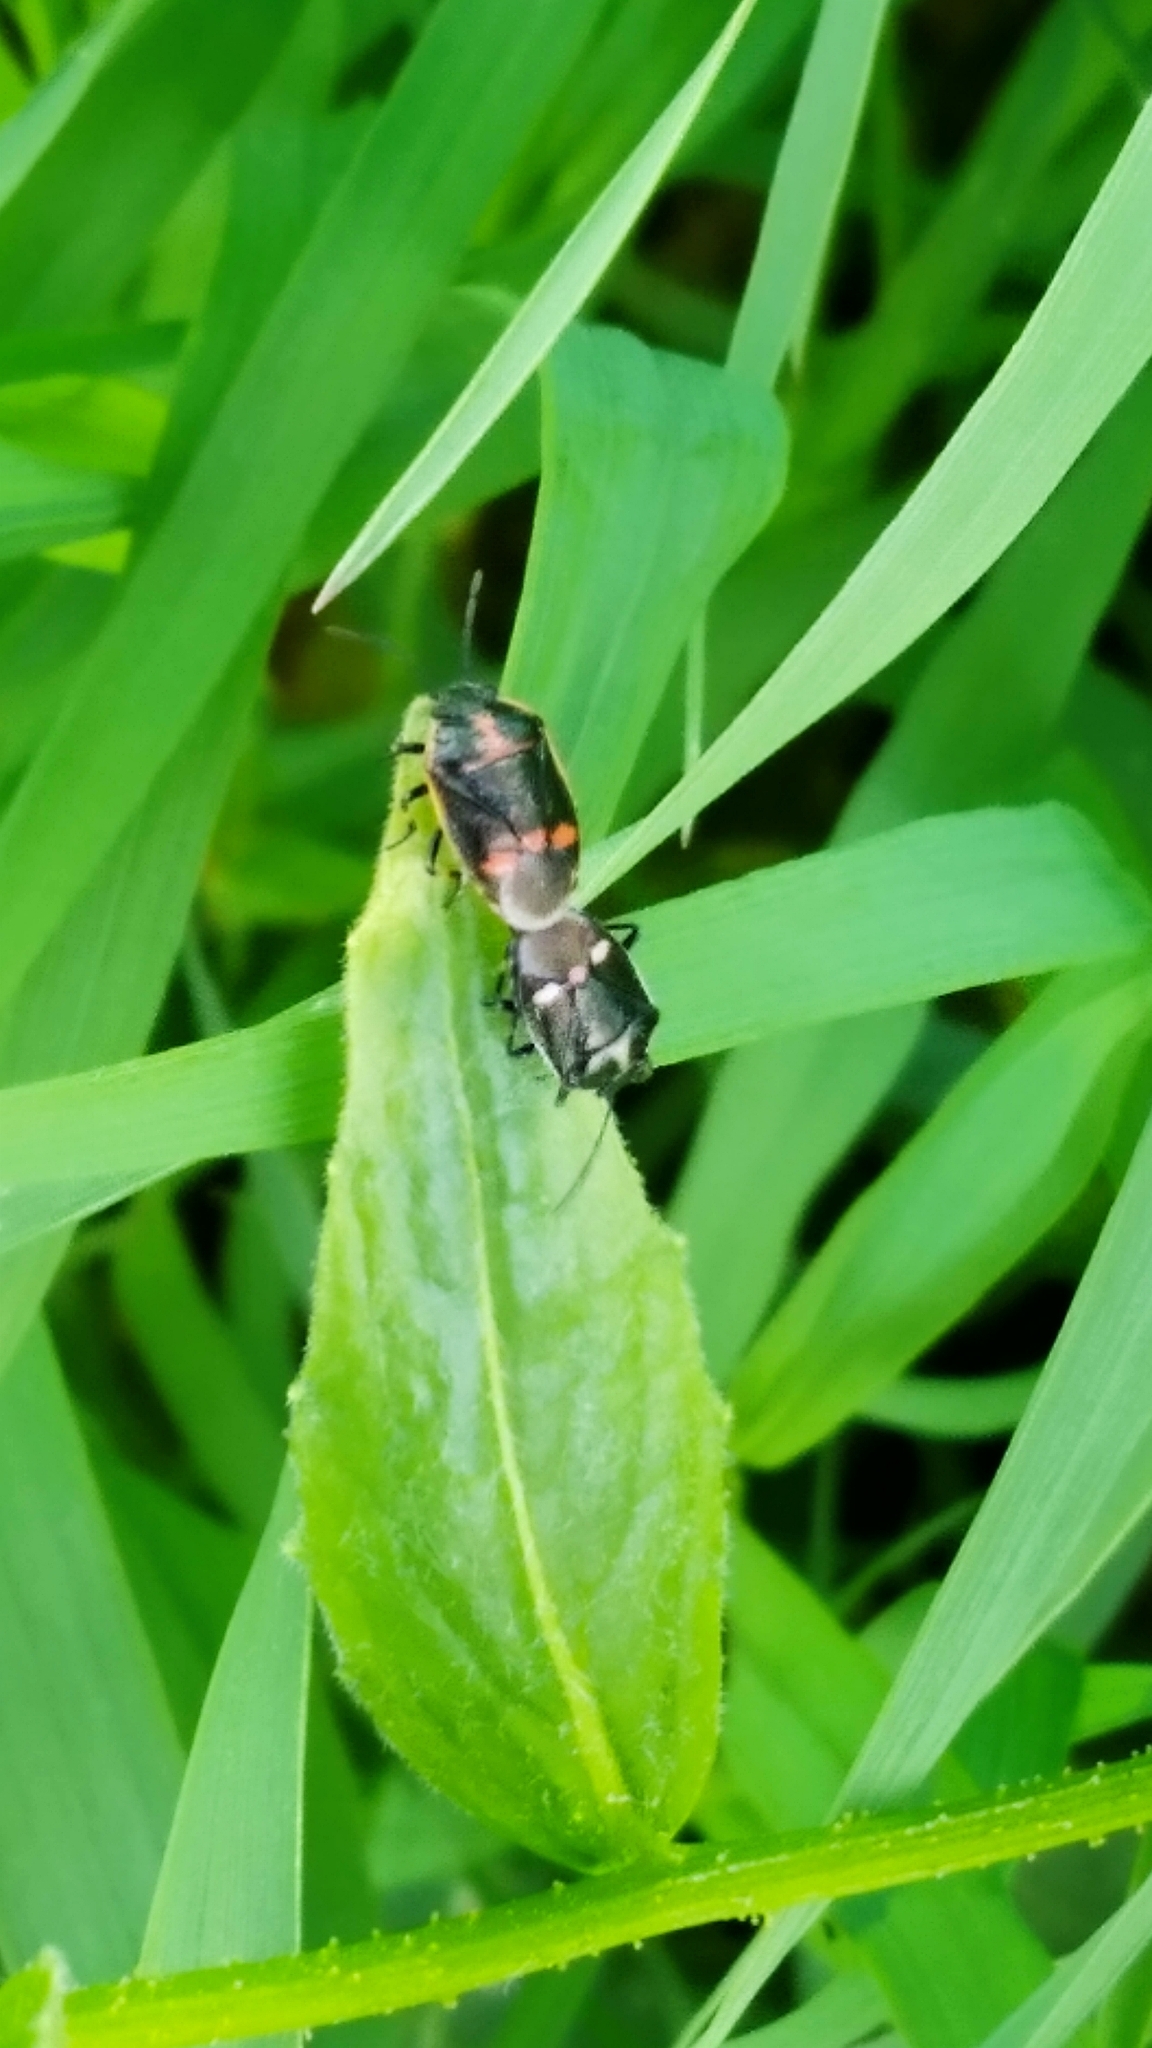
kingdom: Animalia
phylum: Arthropoda
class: Insecta
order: Hemiptera
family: Pentatomidae
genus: Eurydema
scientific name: Eurydema oleracea
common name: Cabbage bug
